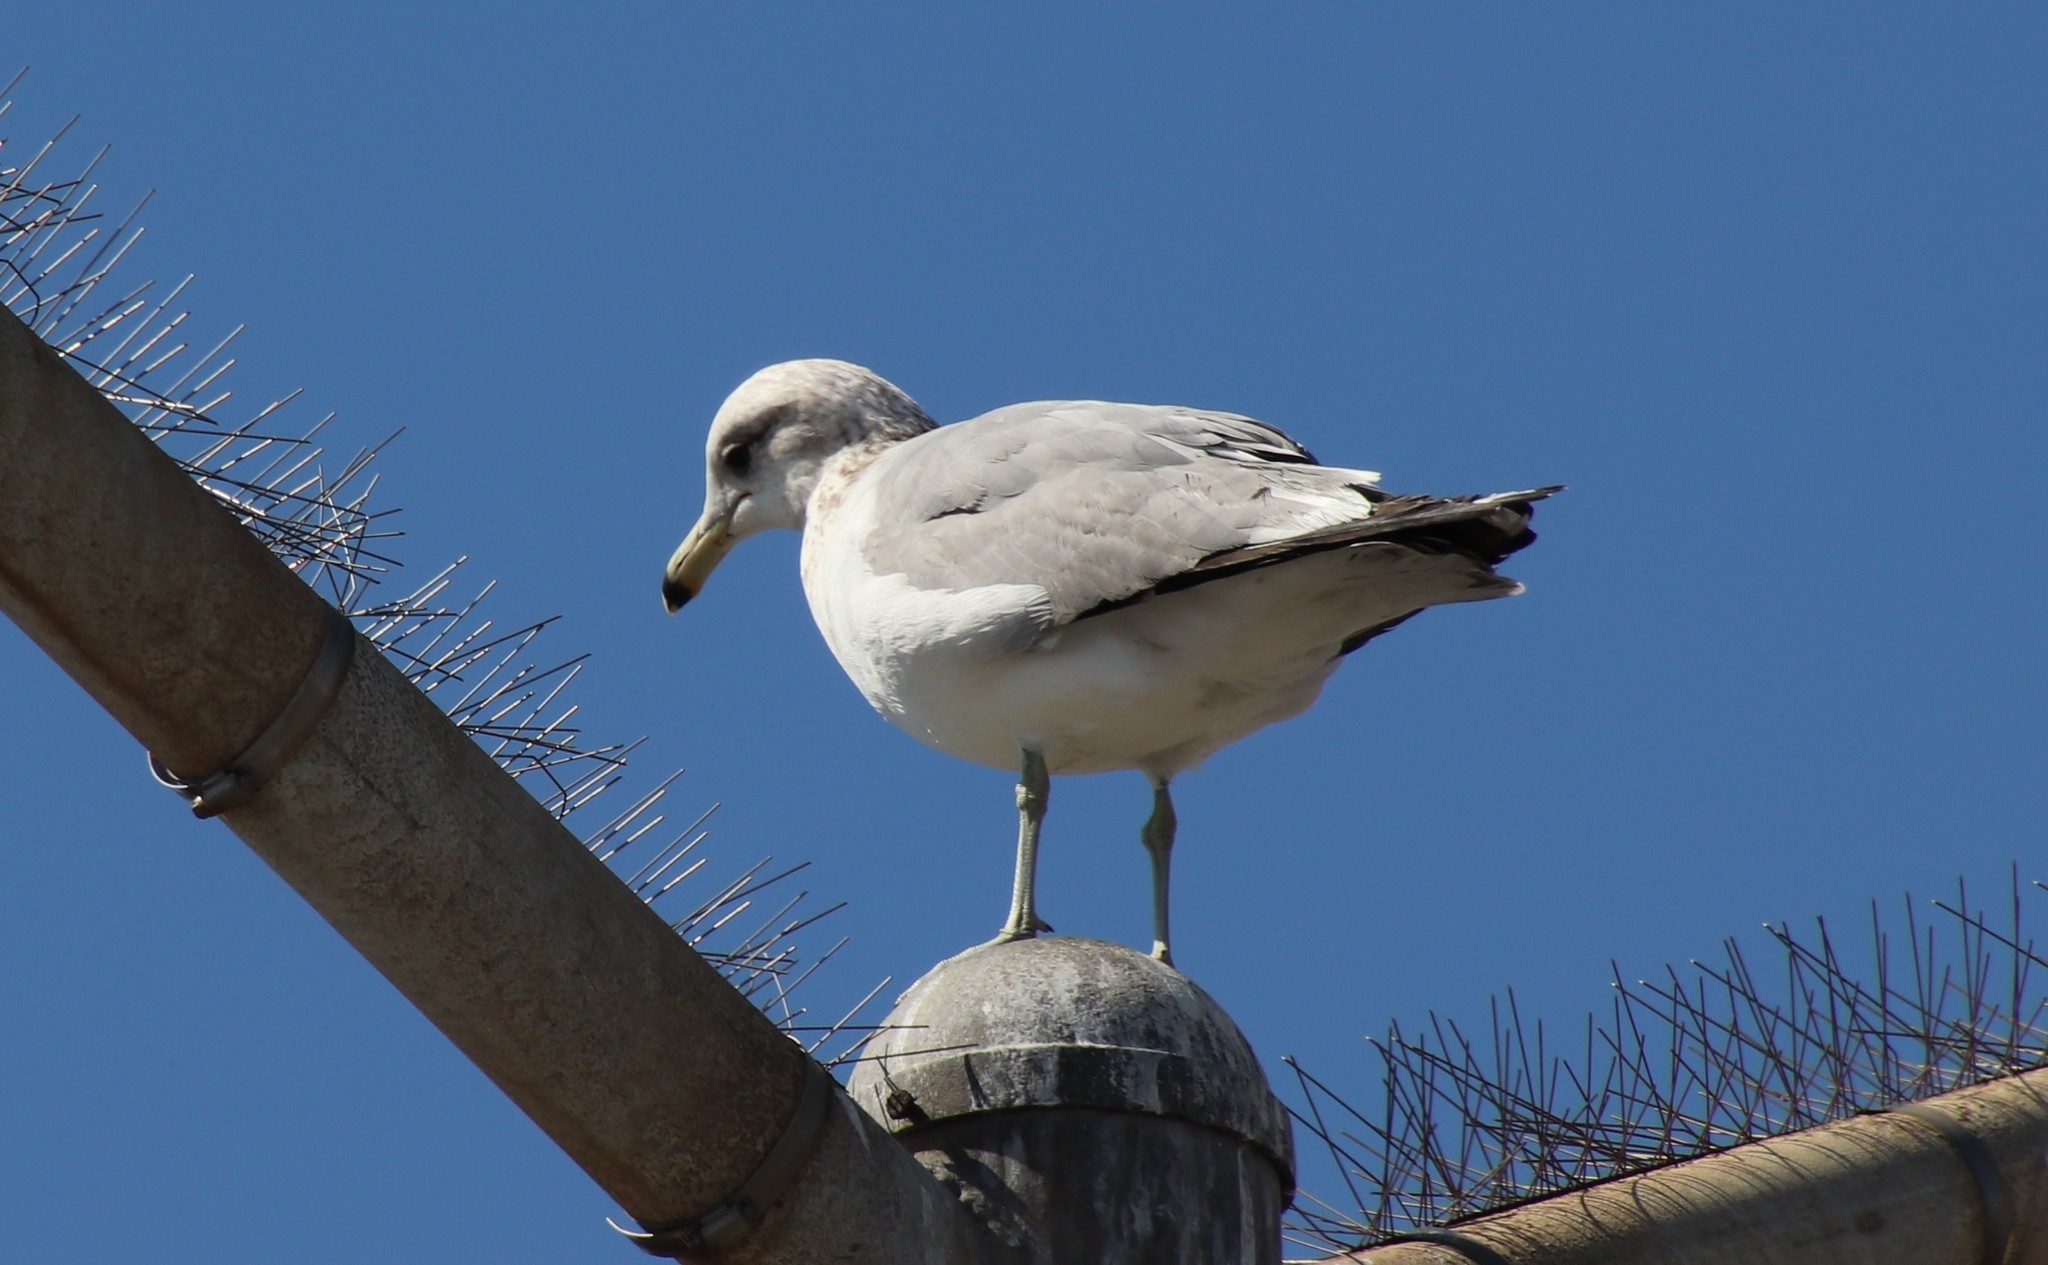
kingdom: Animalia
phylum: Chordata
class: Aves
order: Charadriiformes
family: Laridae
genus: Larus
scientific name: Larus californicus
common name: California gull
